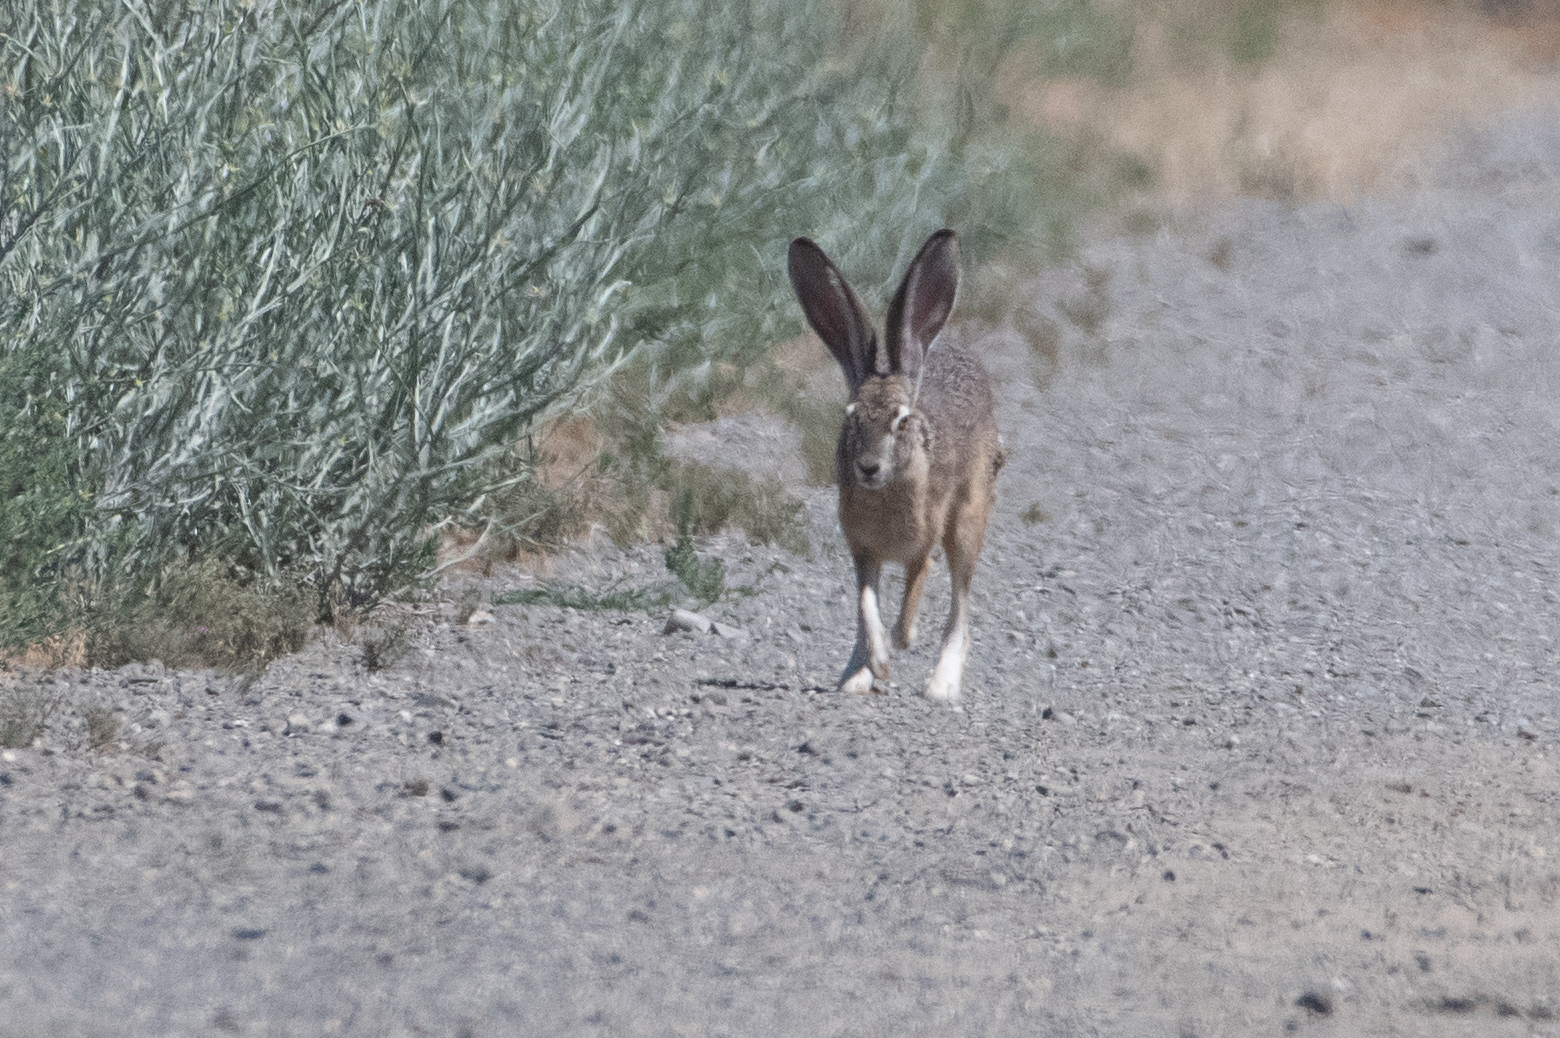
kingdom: Animalia
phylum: Chordata
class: Mammalia
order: Lagomorpha
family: Leporidae
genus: Lepus
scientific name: Lepus californicus
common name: Black-tailed jackrabbit
